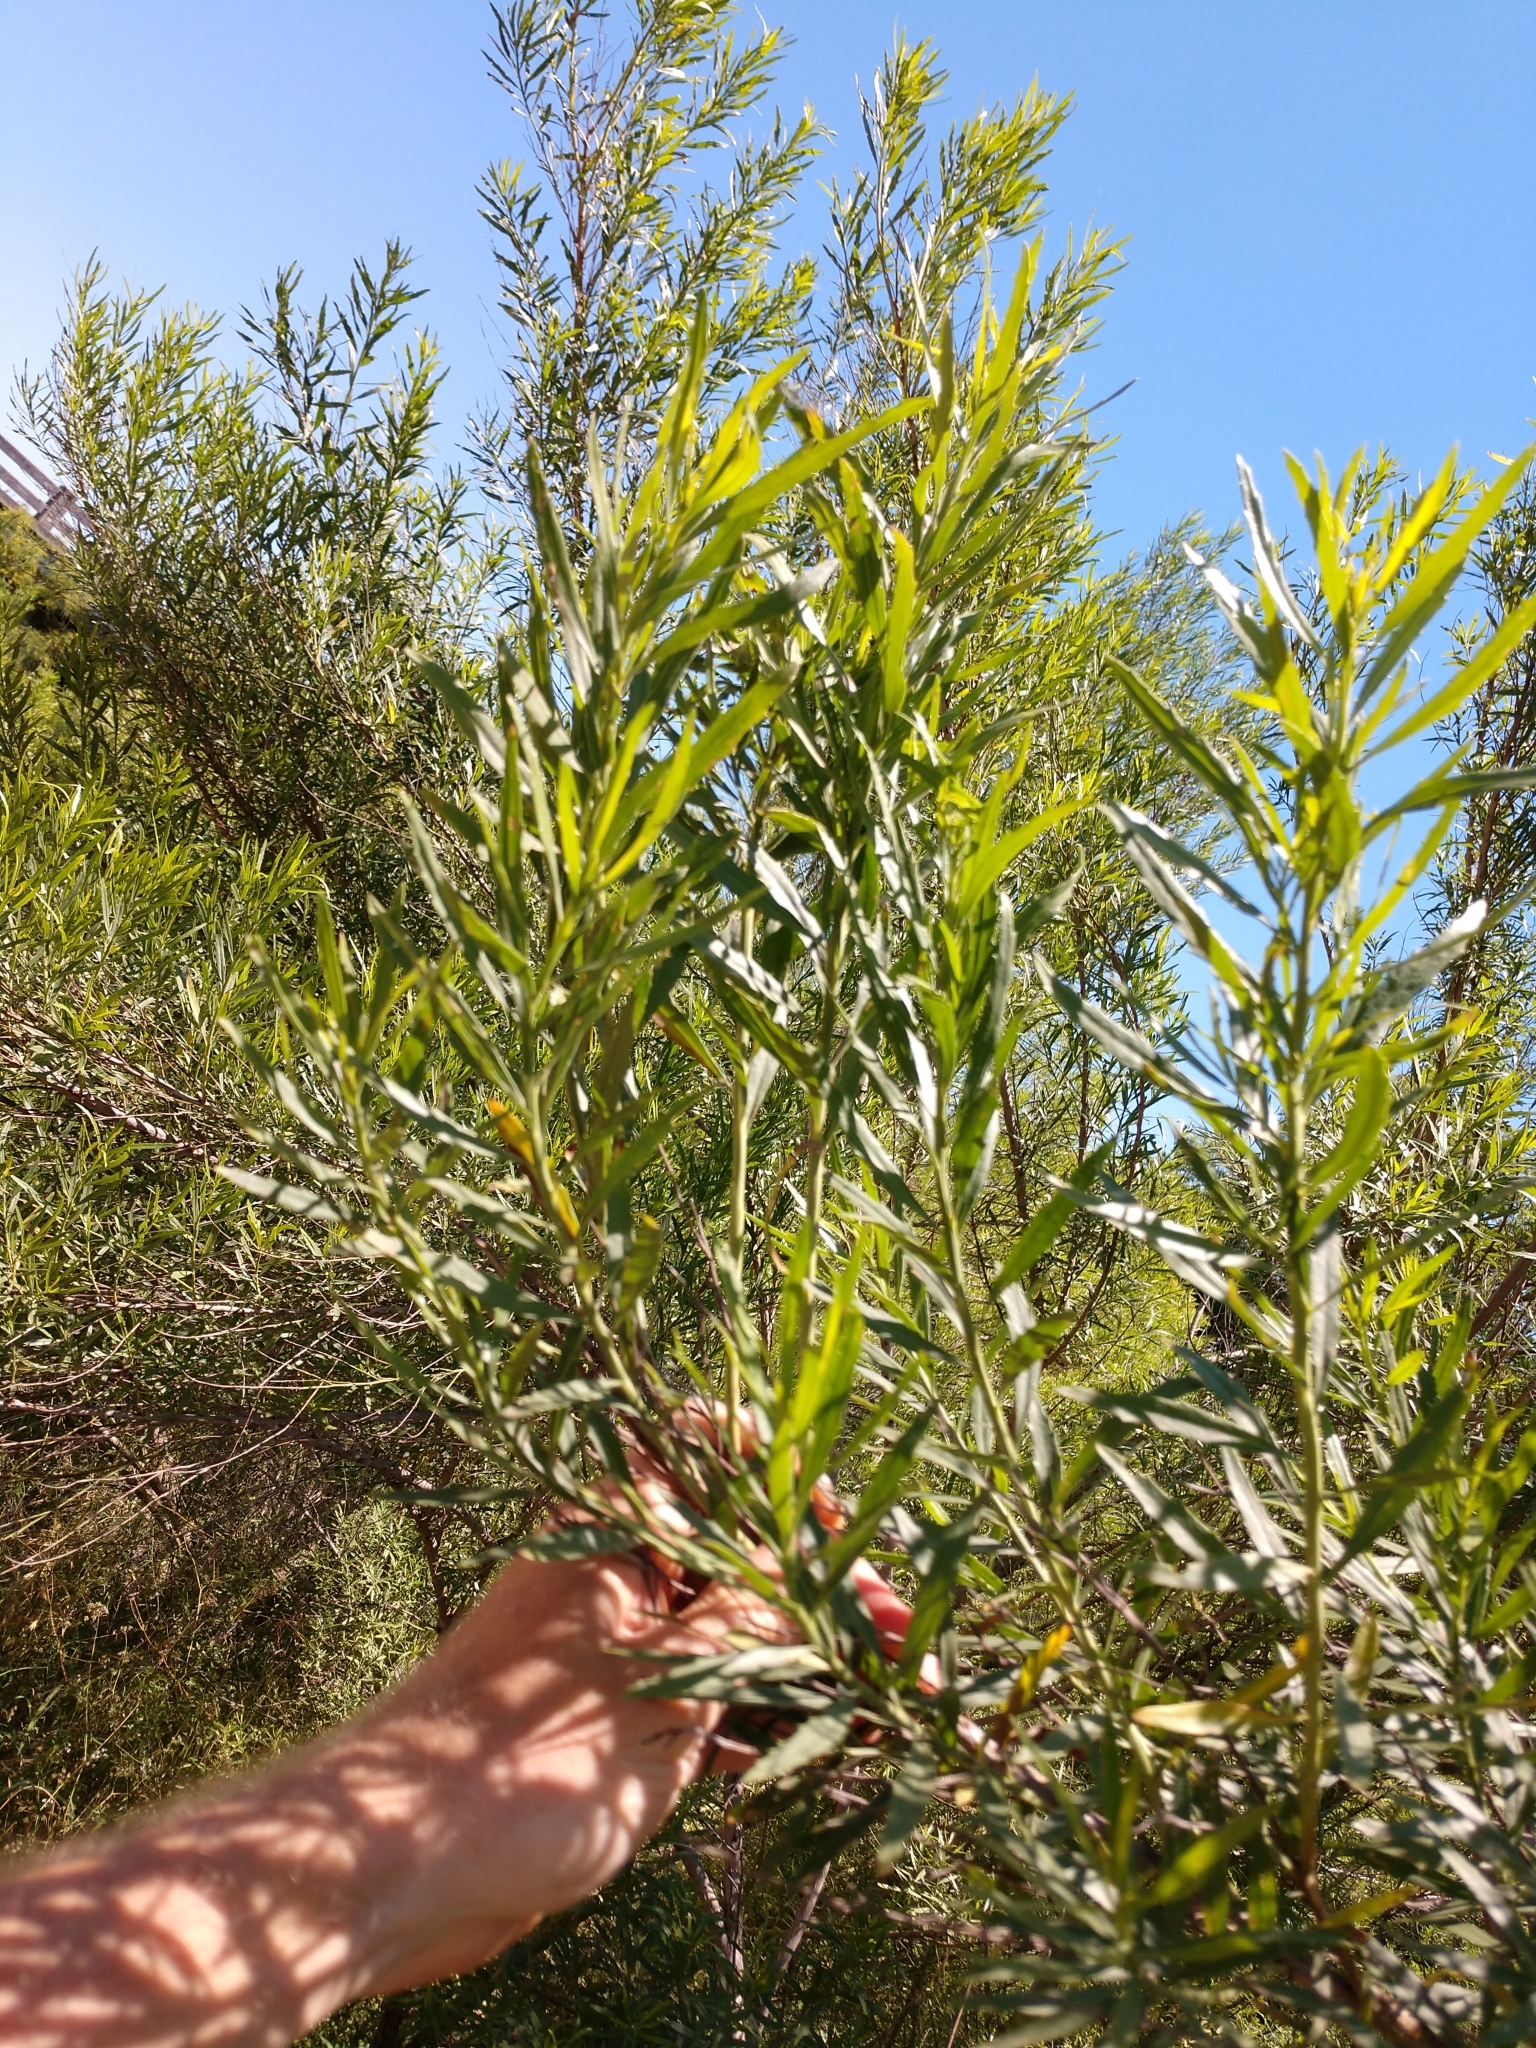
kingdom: Plantae
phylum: Tracheophyta
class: Magnoliopsida
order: Asterales
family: Asteraceae
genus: Baccharis
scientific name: Baccharis neglecta
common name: Roosevelt-weed
